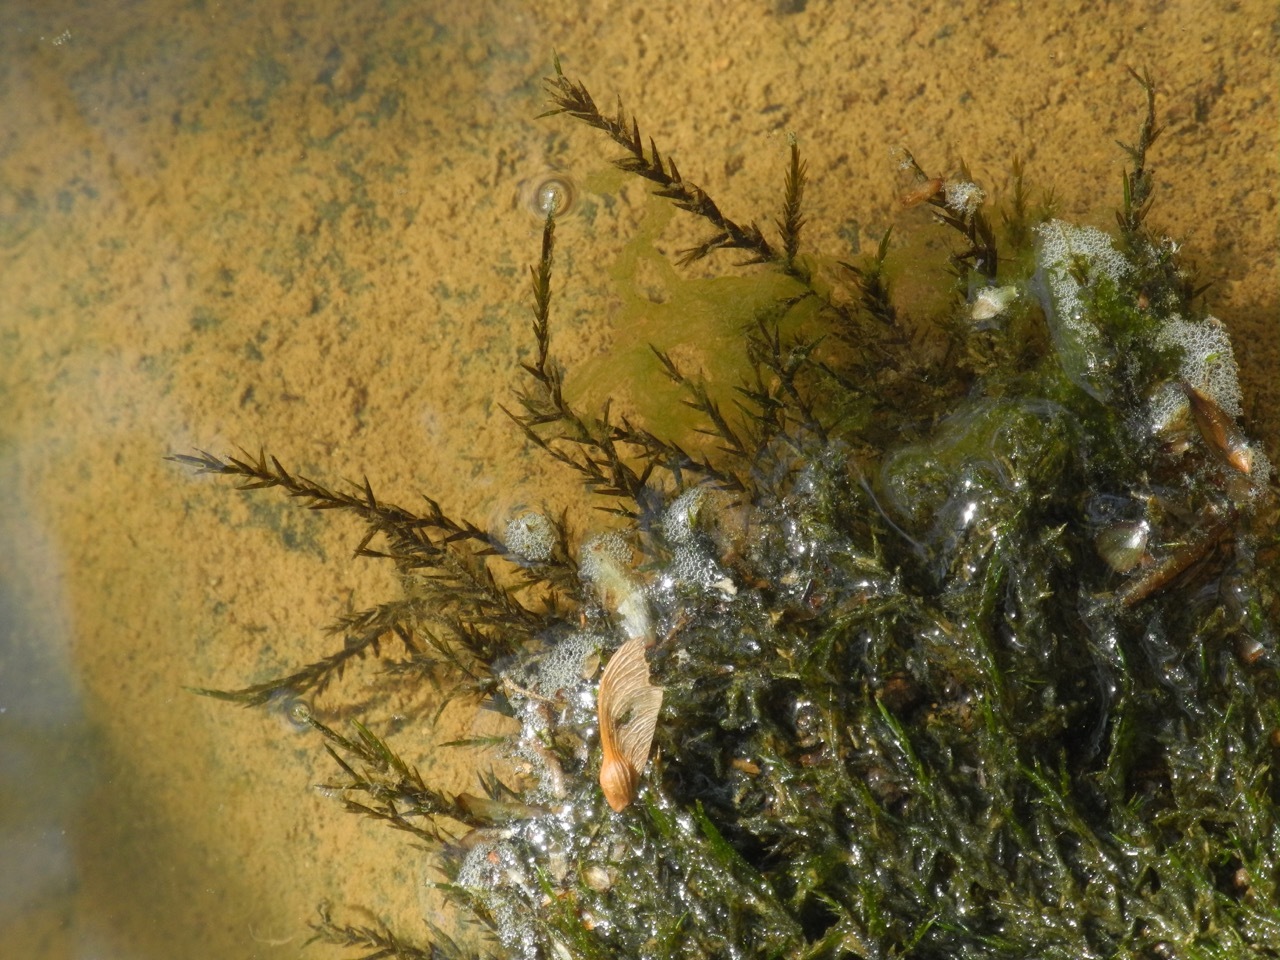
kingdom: Plantae
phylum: Bryophyta
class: Bryopsida
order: Hypnales
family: Fontinalaceae
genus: Fontinalis
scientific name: Fontinalis dalecarlica
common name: Slender water moss
